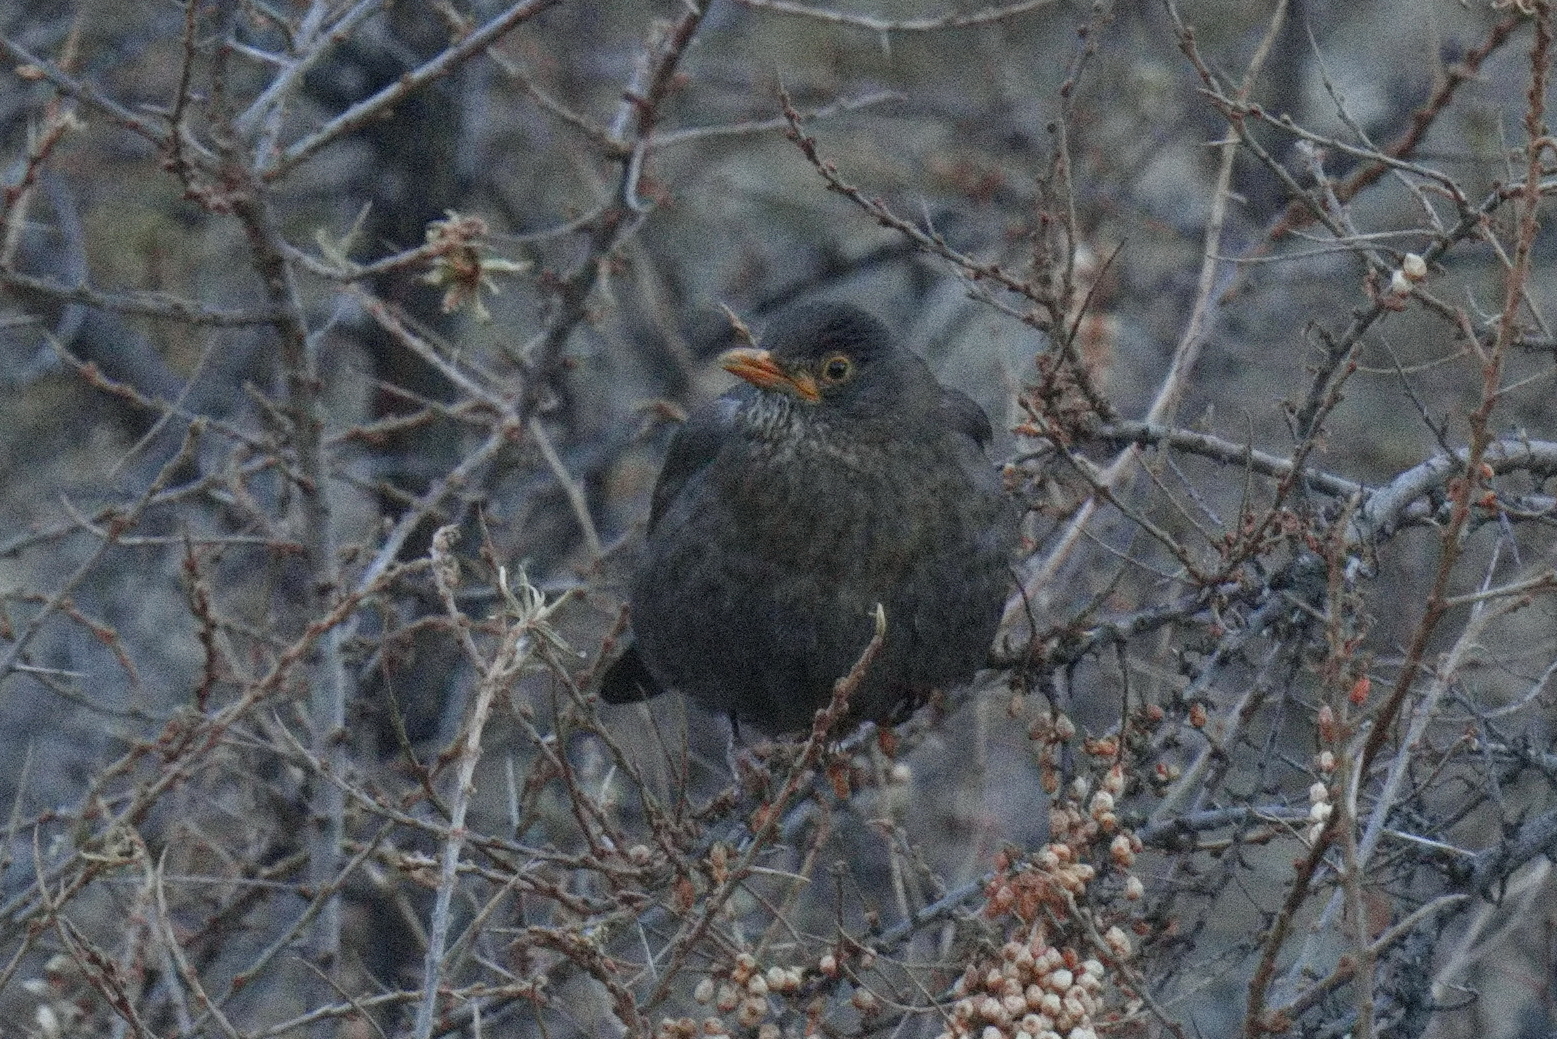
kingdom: Animalia
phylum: Chordata
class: Aves
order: Passeriformes
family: Turdidae
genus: Turdus
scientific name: Turdus merula
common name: Common blackbird
